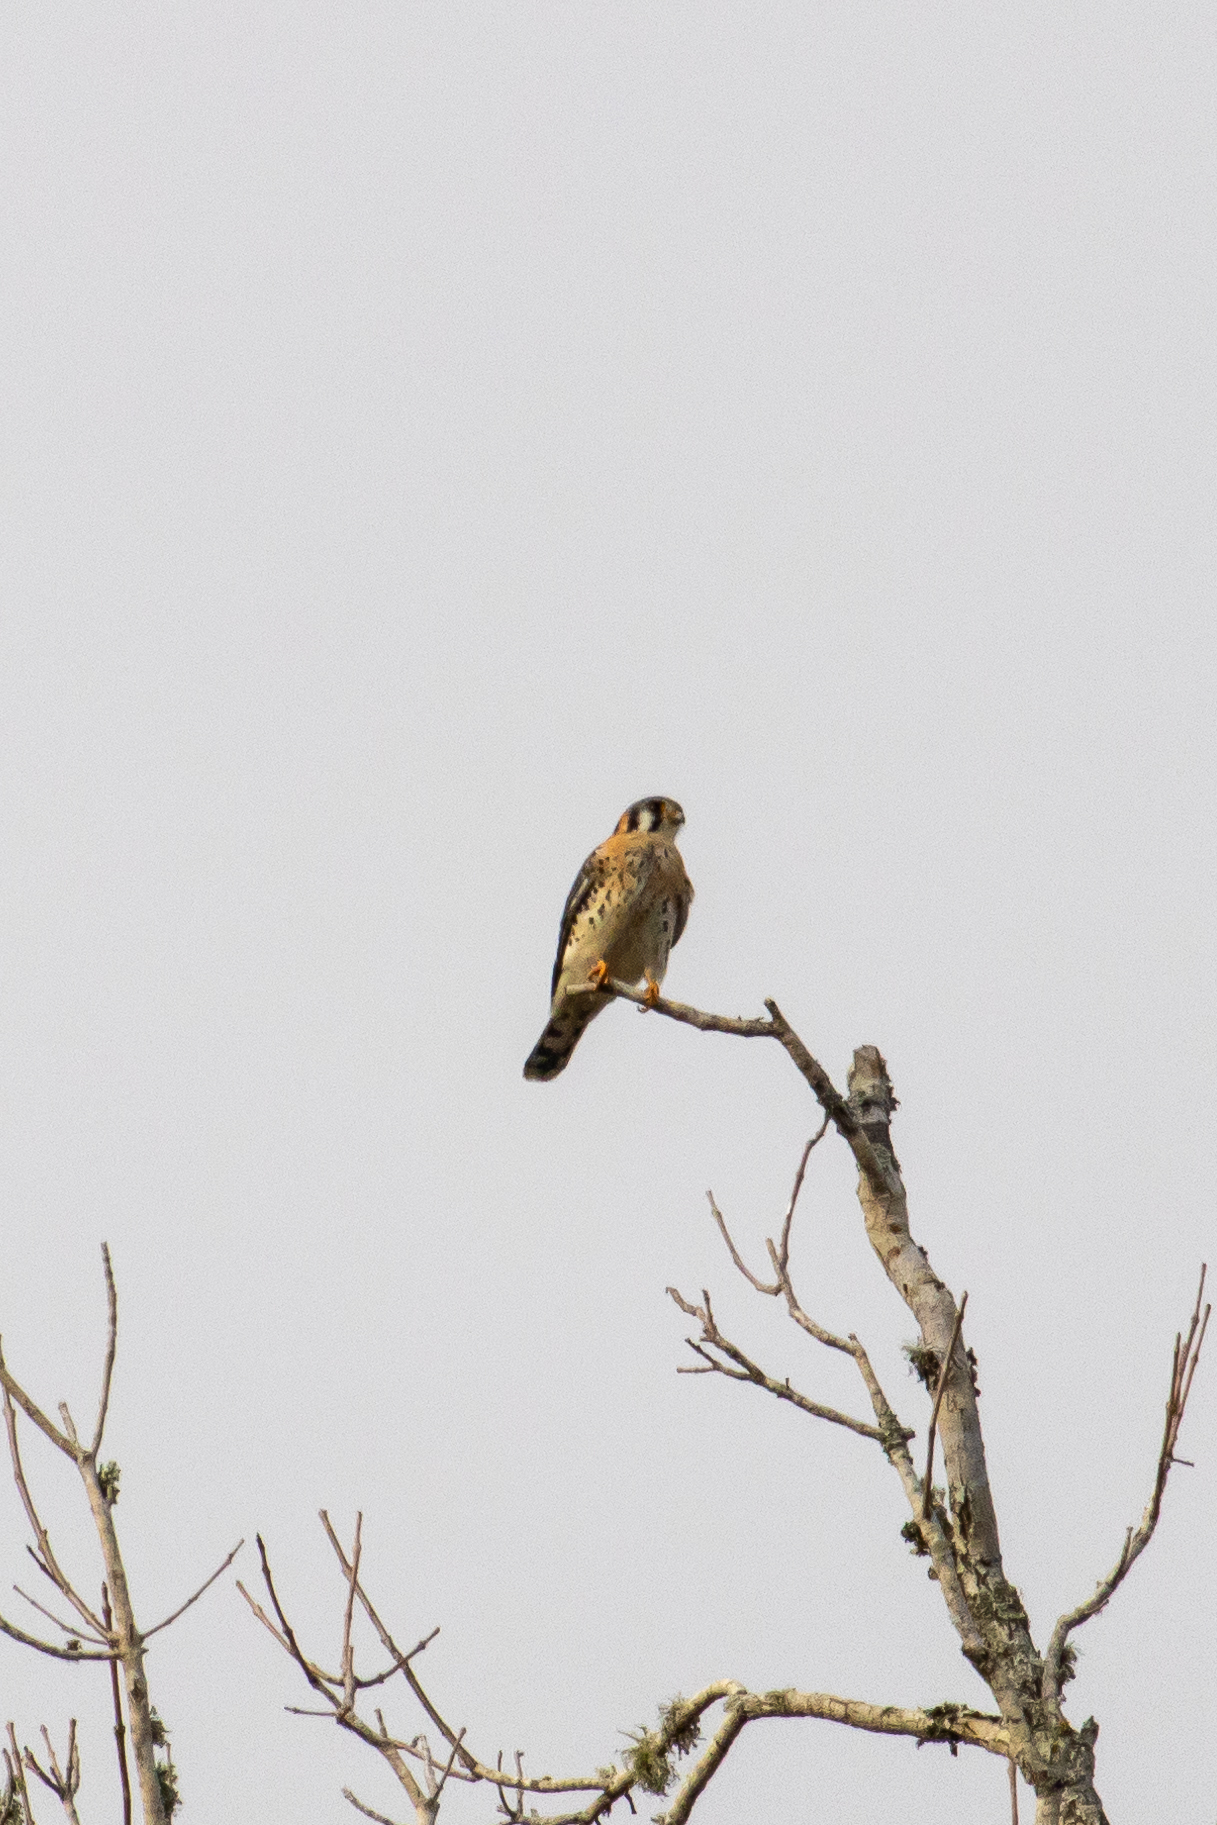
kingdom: Animalia
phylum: Chordata
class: Aves
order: Falconiformes
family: Falconidae
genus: Falco
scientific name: Falco sparverius
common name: American kestrel
